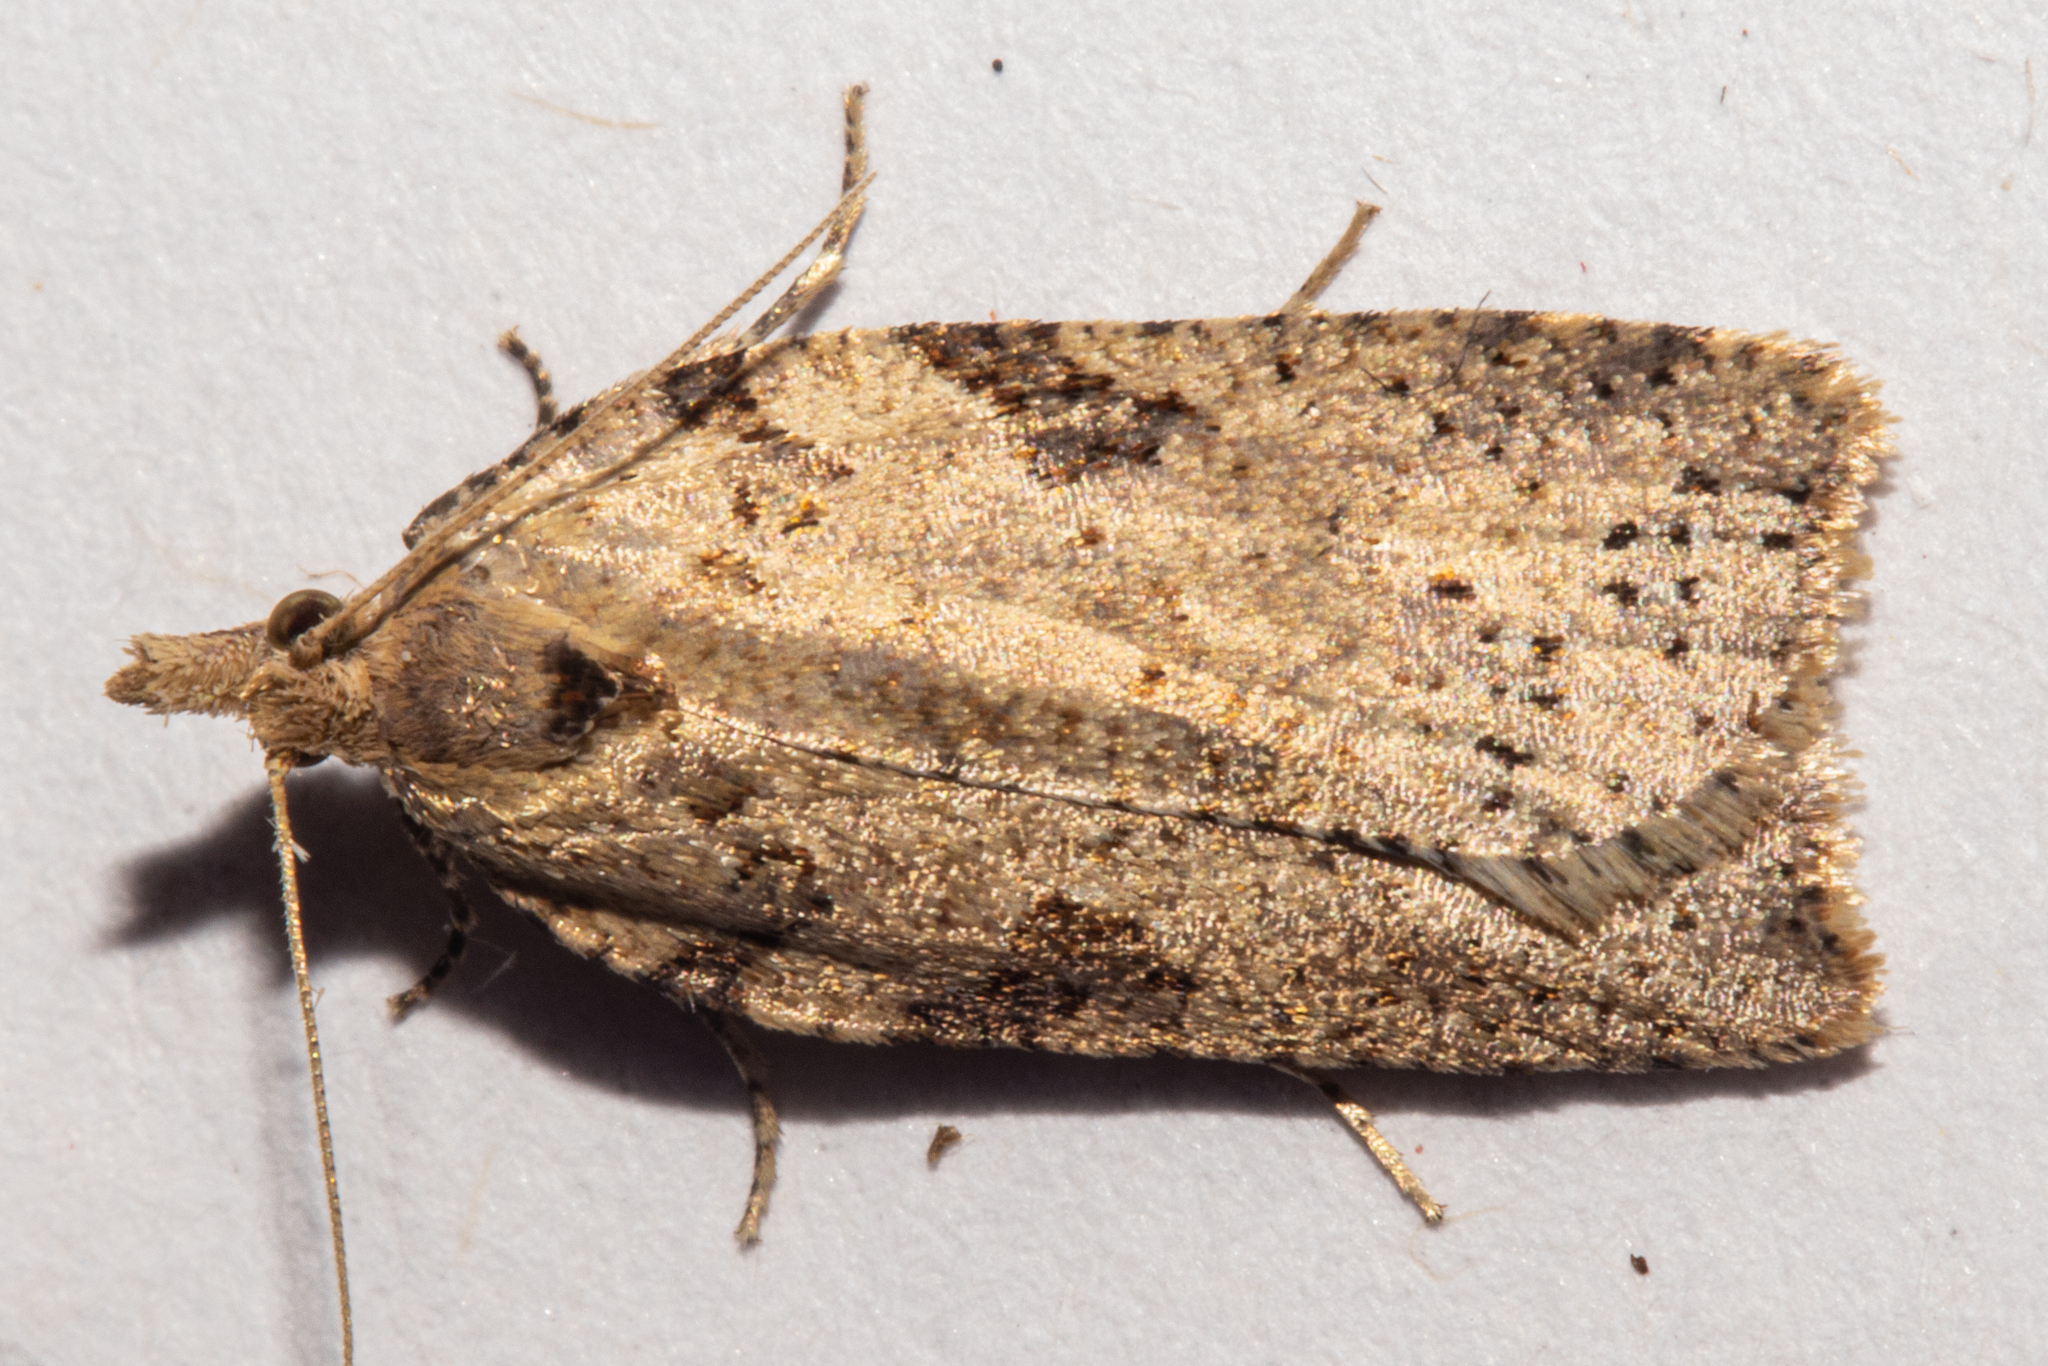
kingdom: Animalia
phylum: Arthropoda
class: Insecta
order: Lepidoptera
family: Tortricidae
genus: Leucotenes
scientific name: Leucotenes coprosmae
